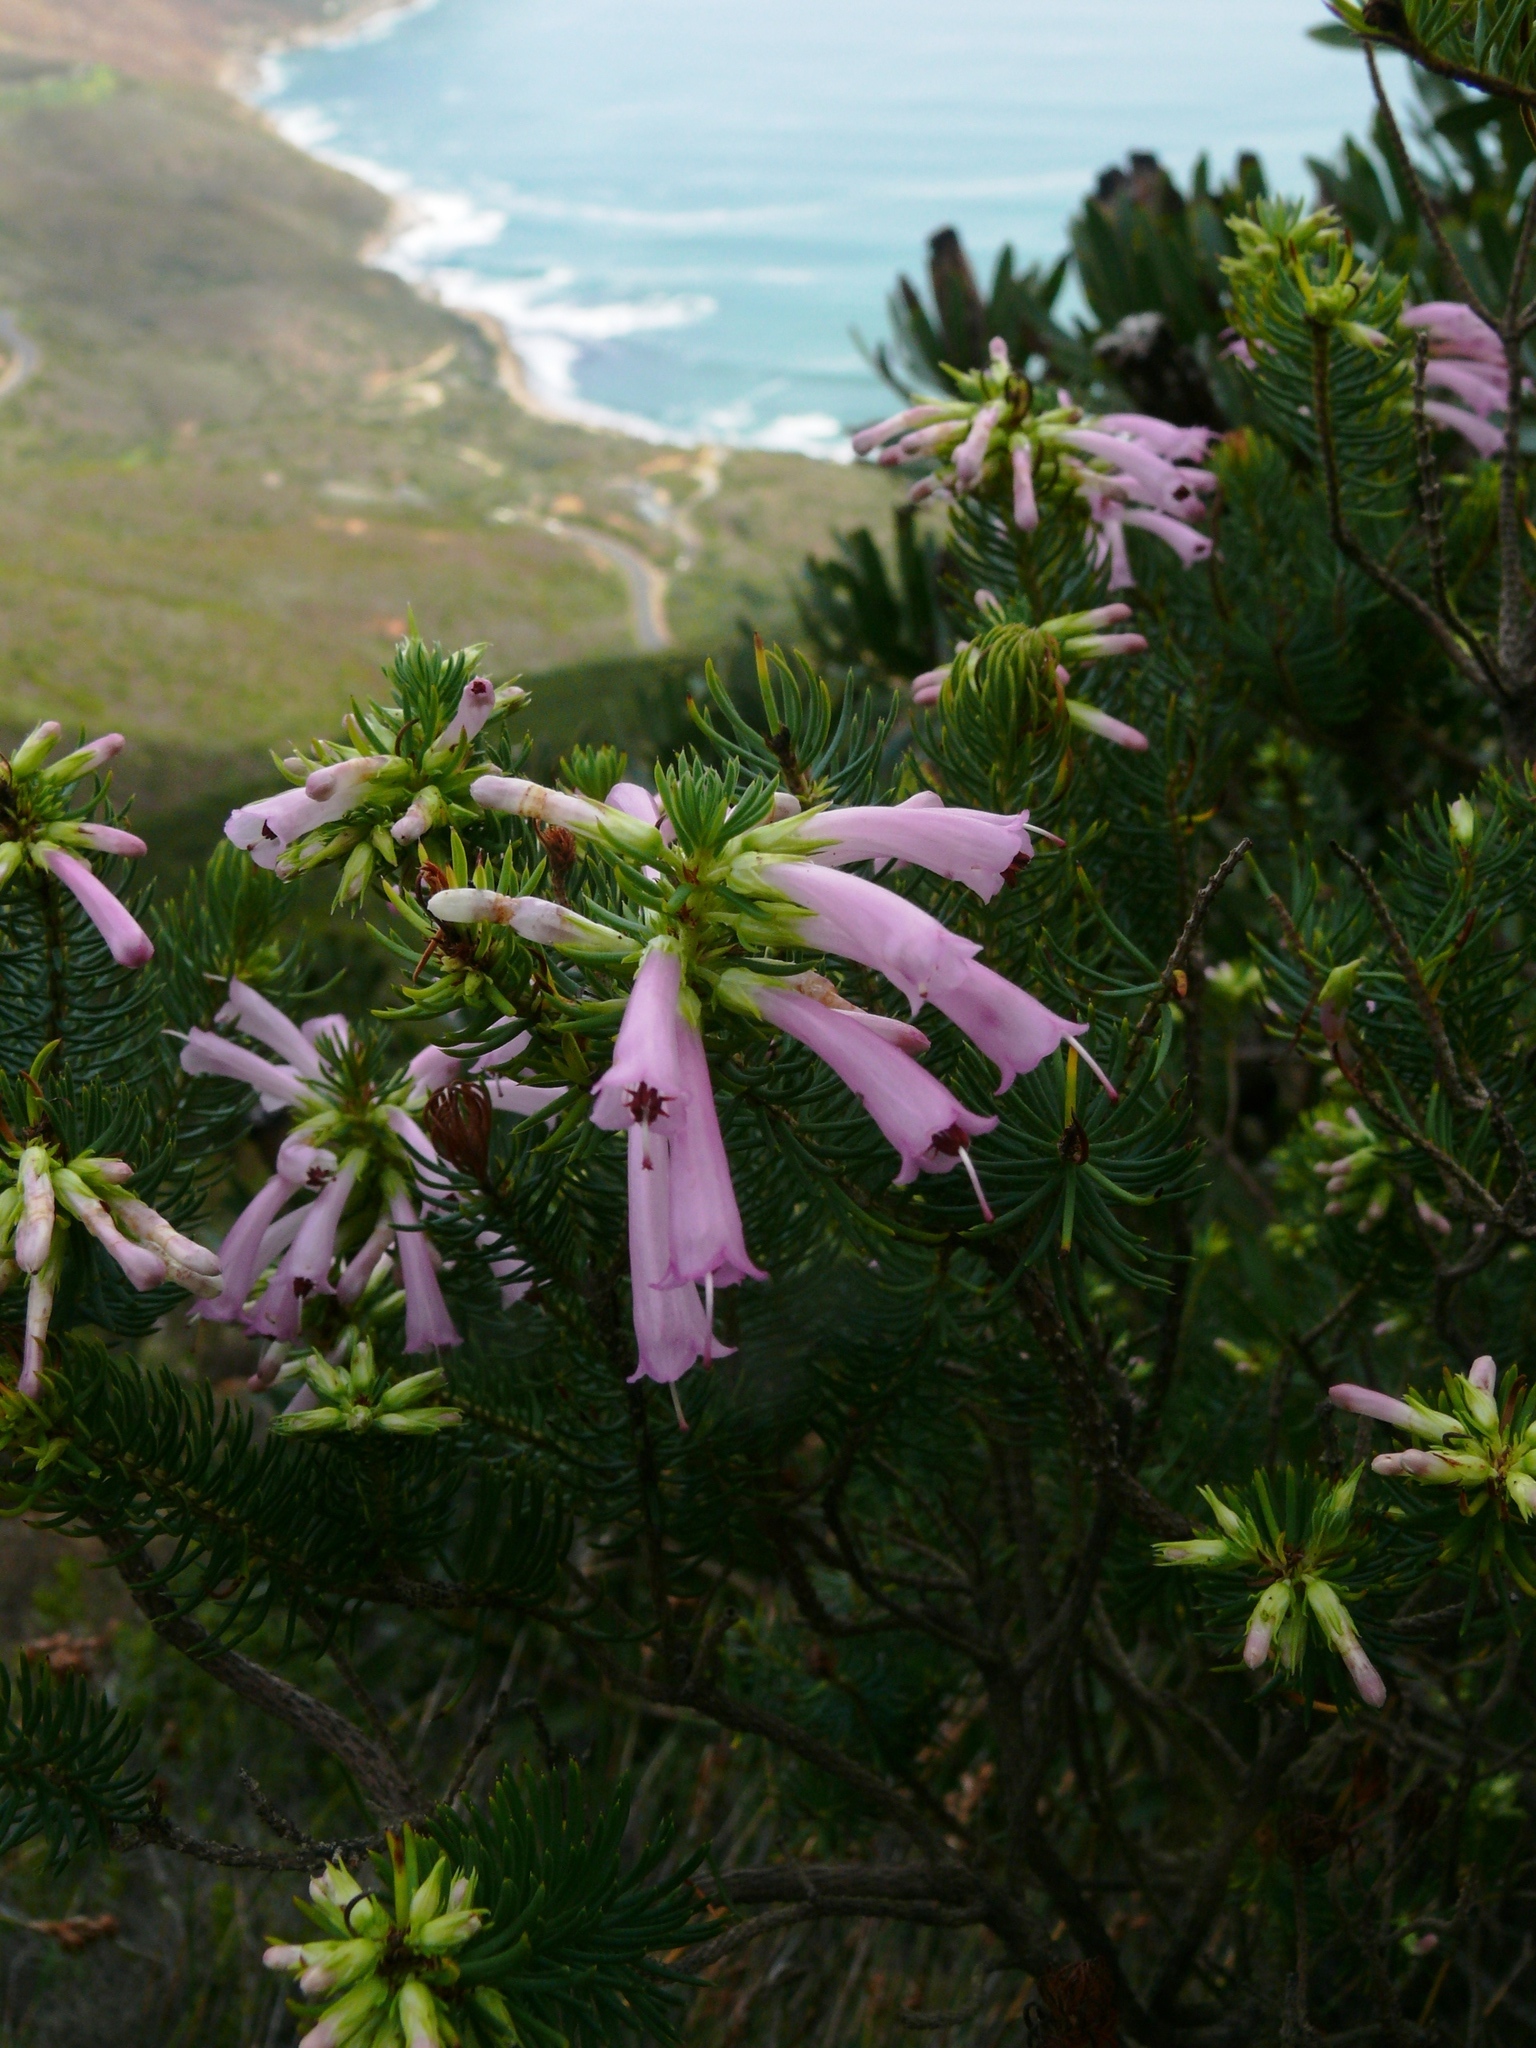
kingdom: Plantae
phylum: Tracheophyta
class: Magnoliopsida
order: Ericales
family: Ericaceae
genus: Erica
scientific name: Erica abietina
